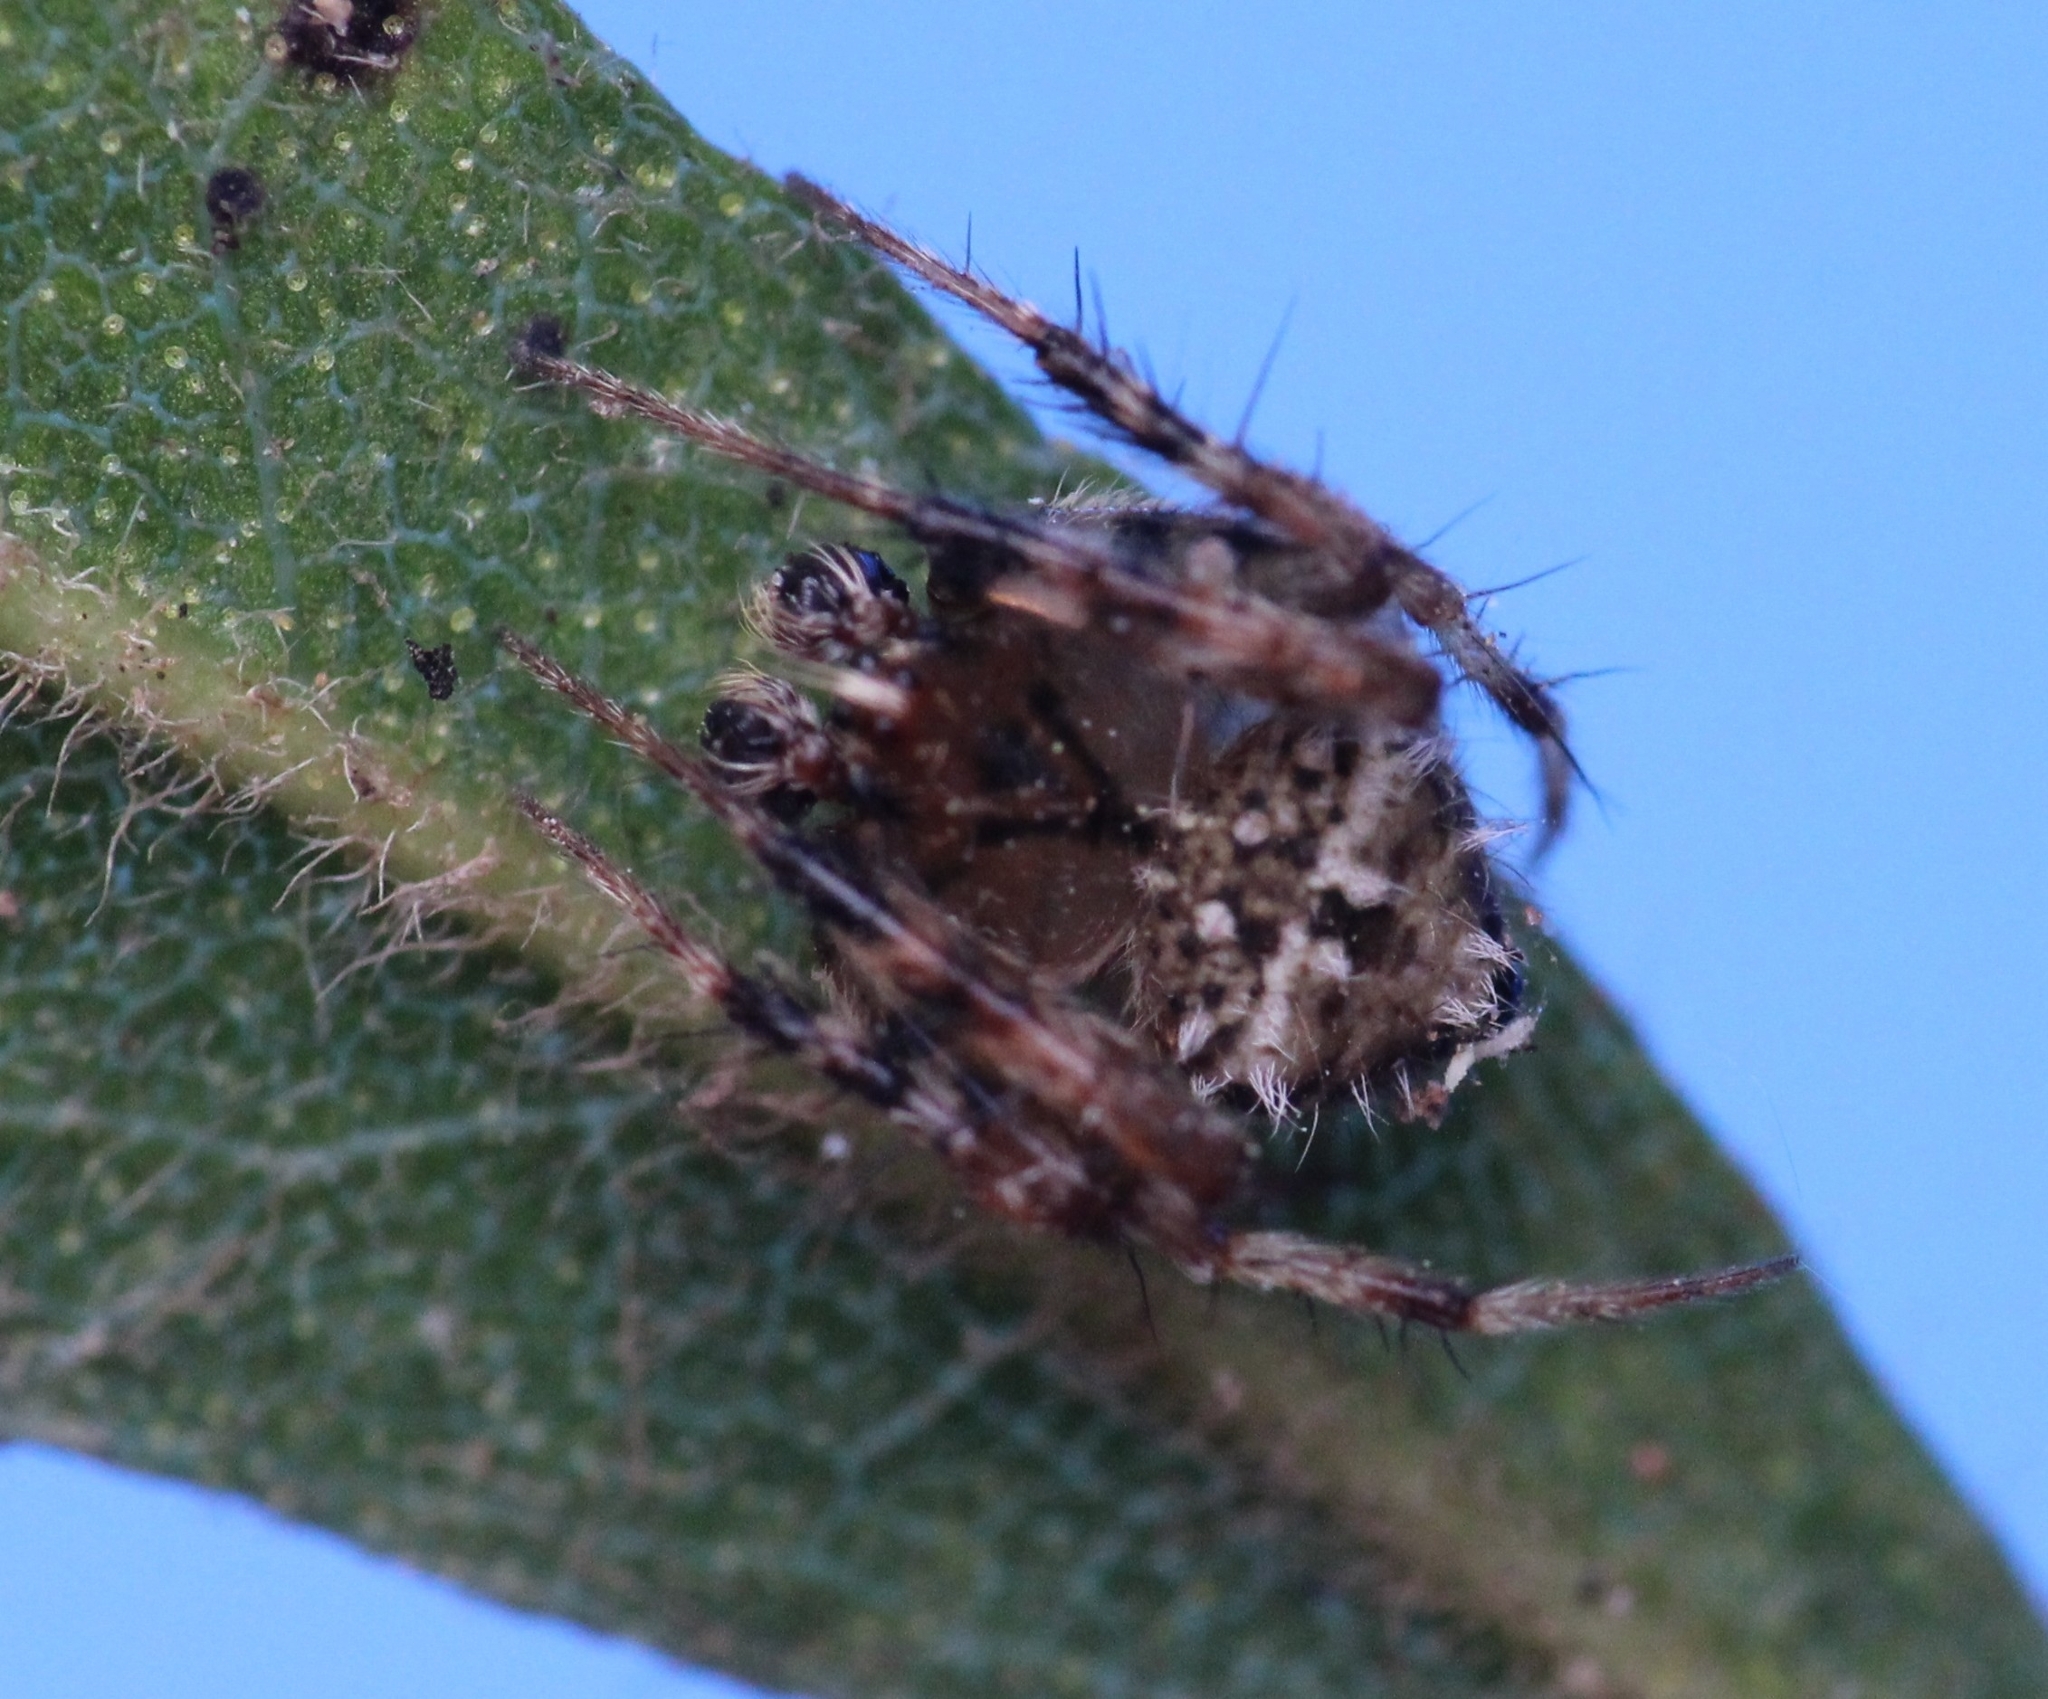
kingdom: Animalia
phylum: Arthropoda
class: Arachnida
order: Araneae
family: Araneidae
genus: Eriovixia
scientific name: Eriovixia excelsa
